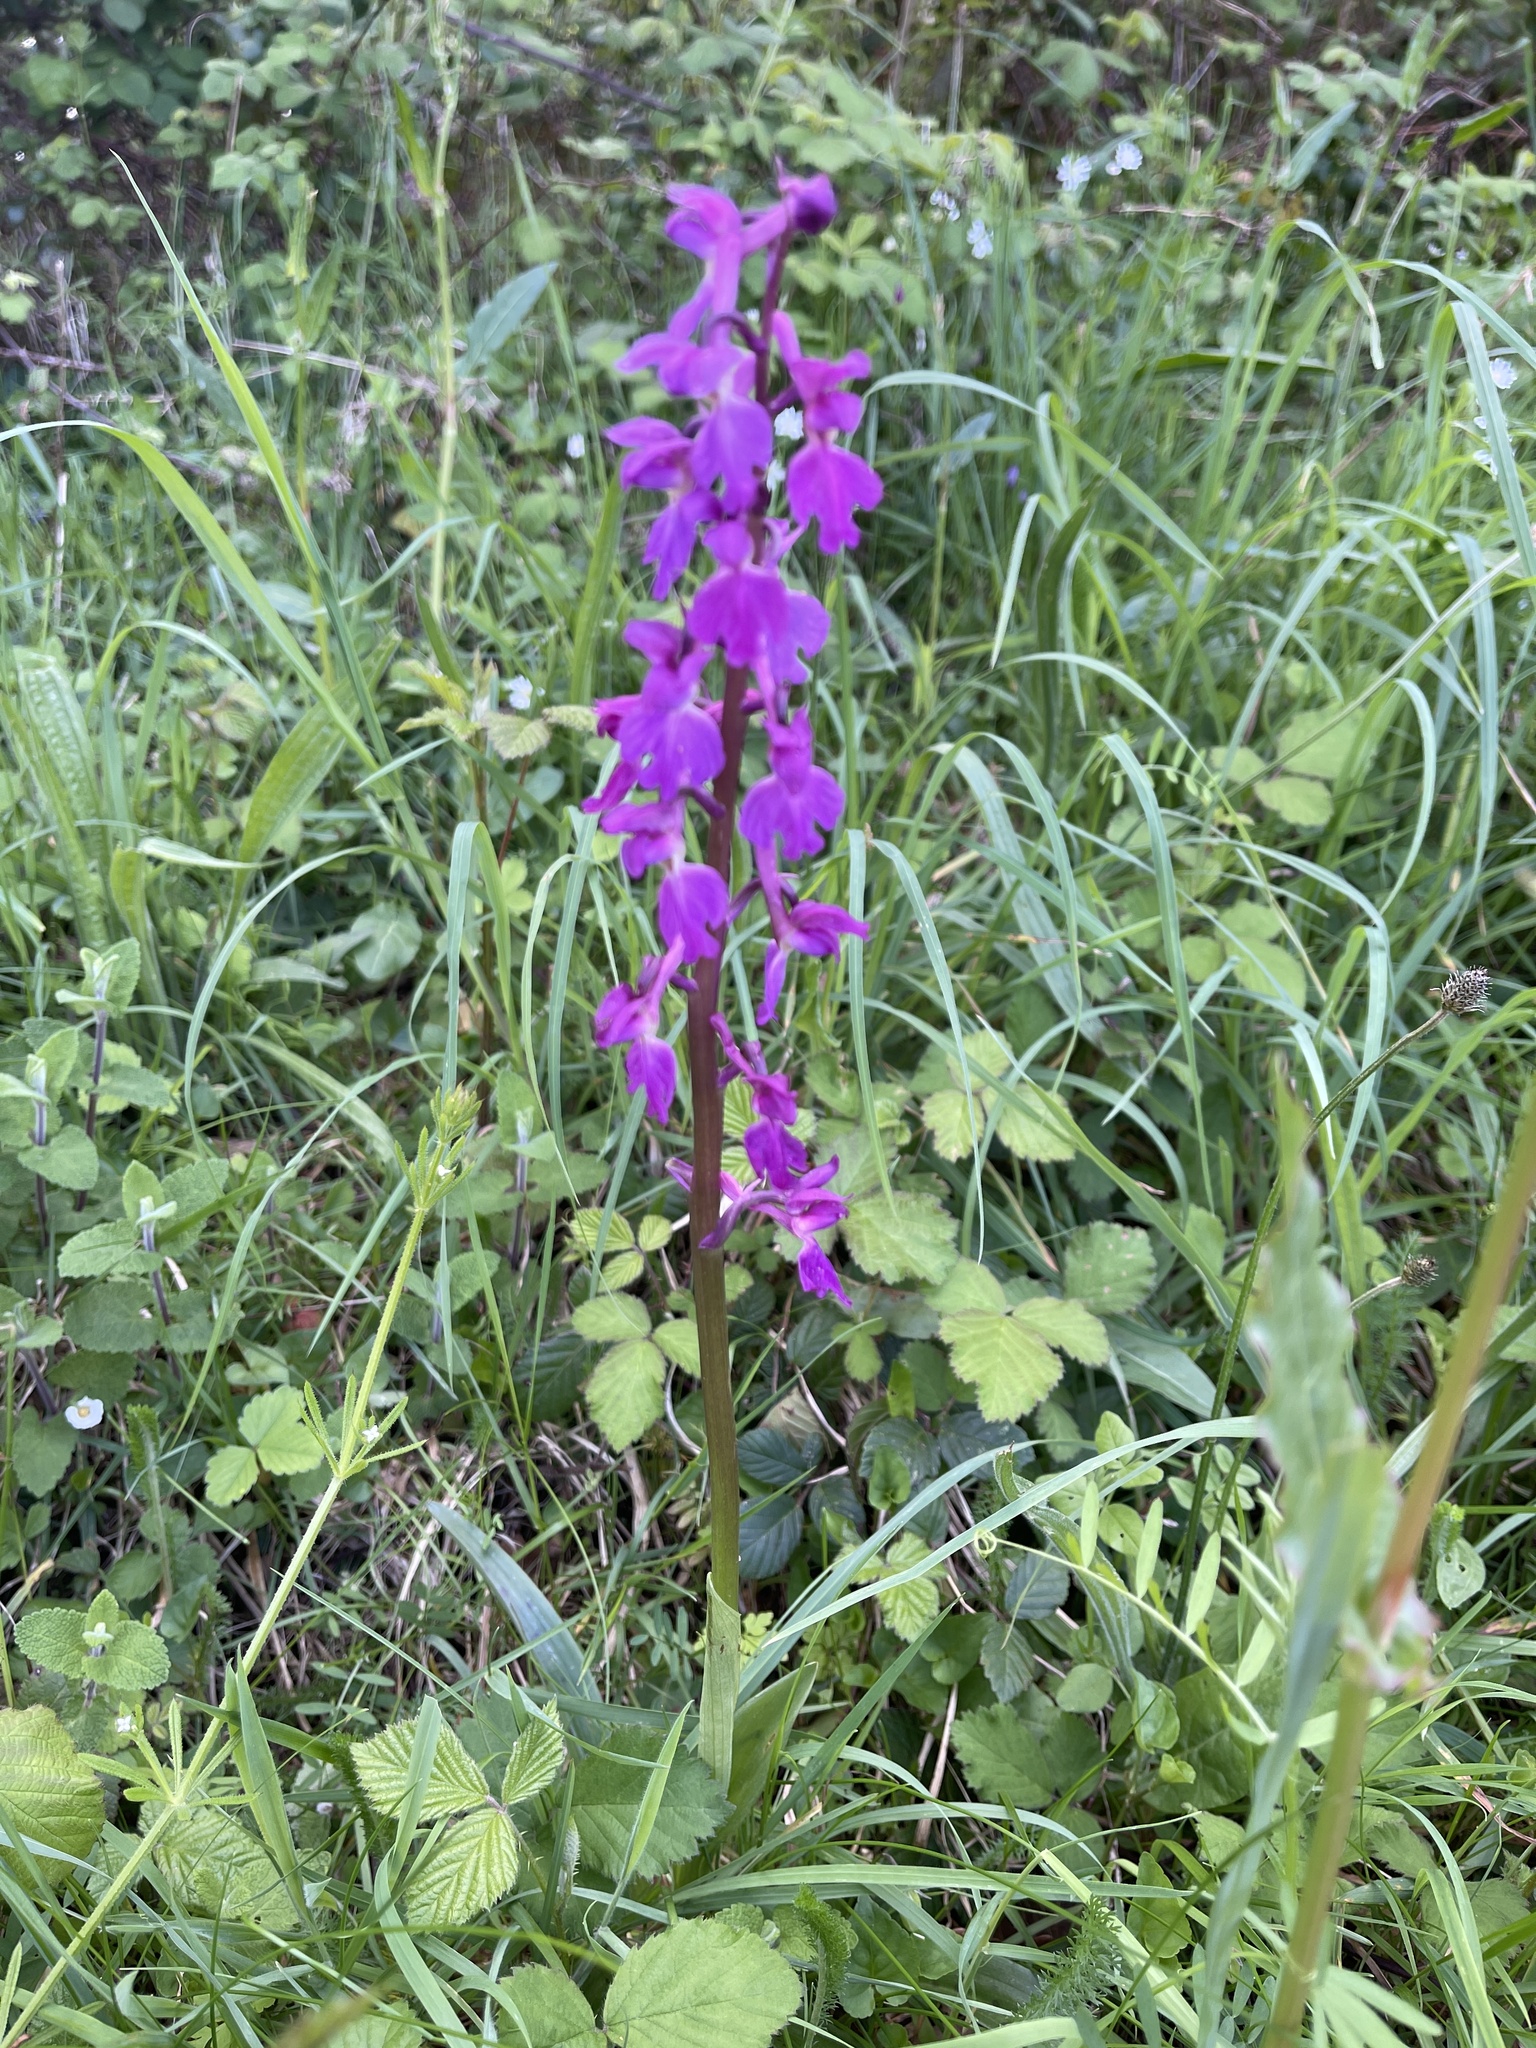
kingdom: Plantae
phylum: Tracheophyta
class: Liliopsida
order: Asparagales
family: Orchidaceae
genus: Orchis
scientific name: Orchis mascula
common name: Early-purple orchid
